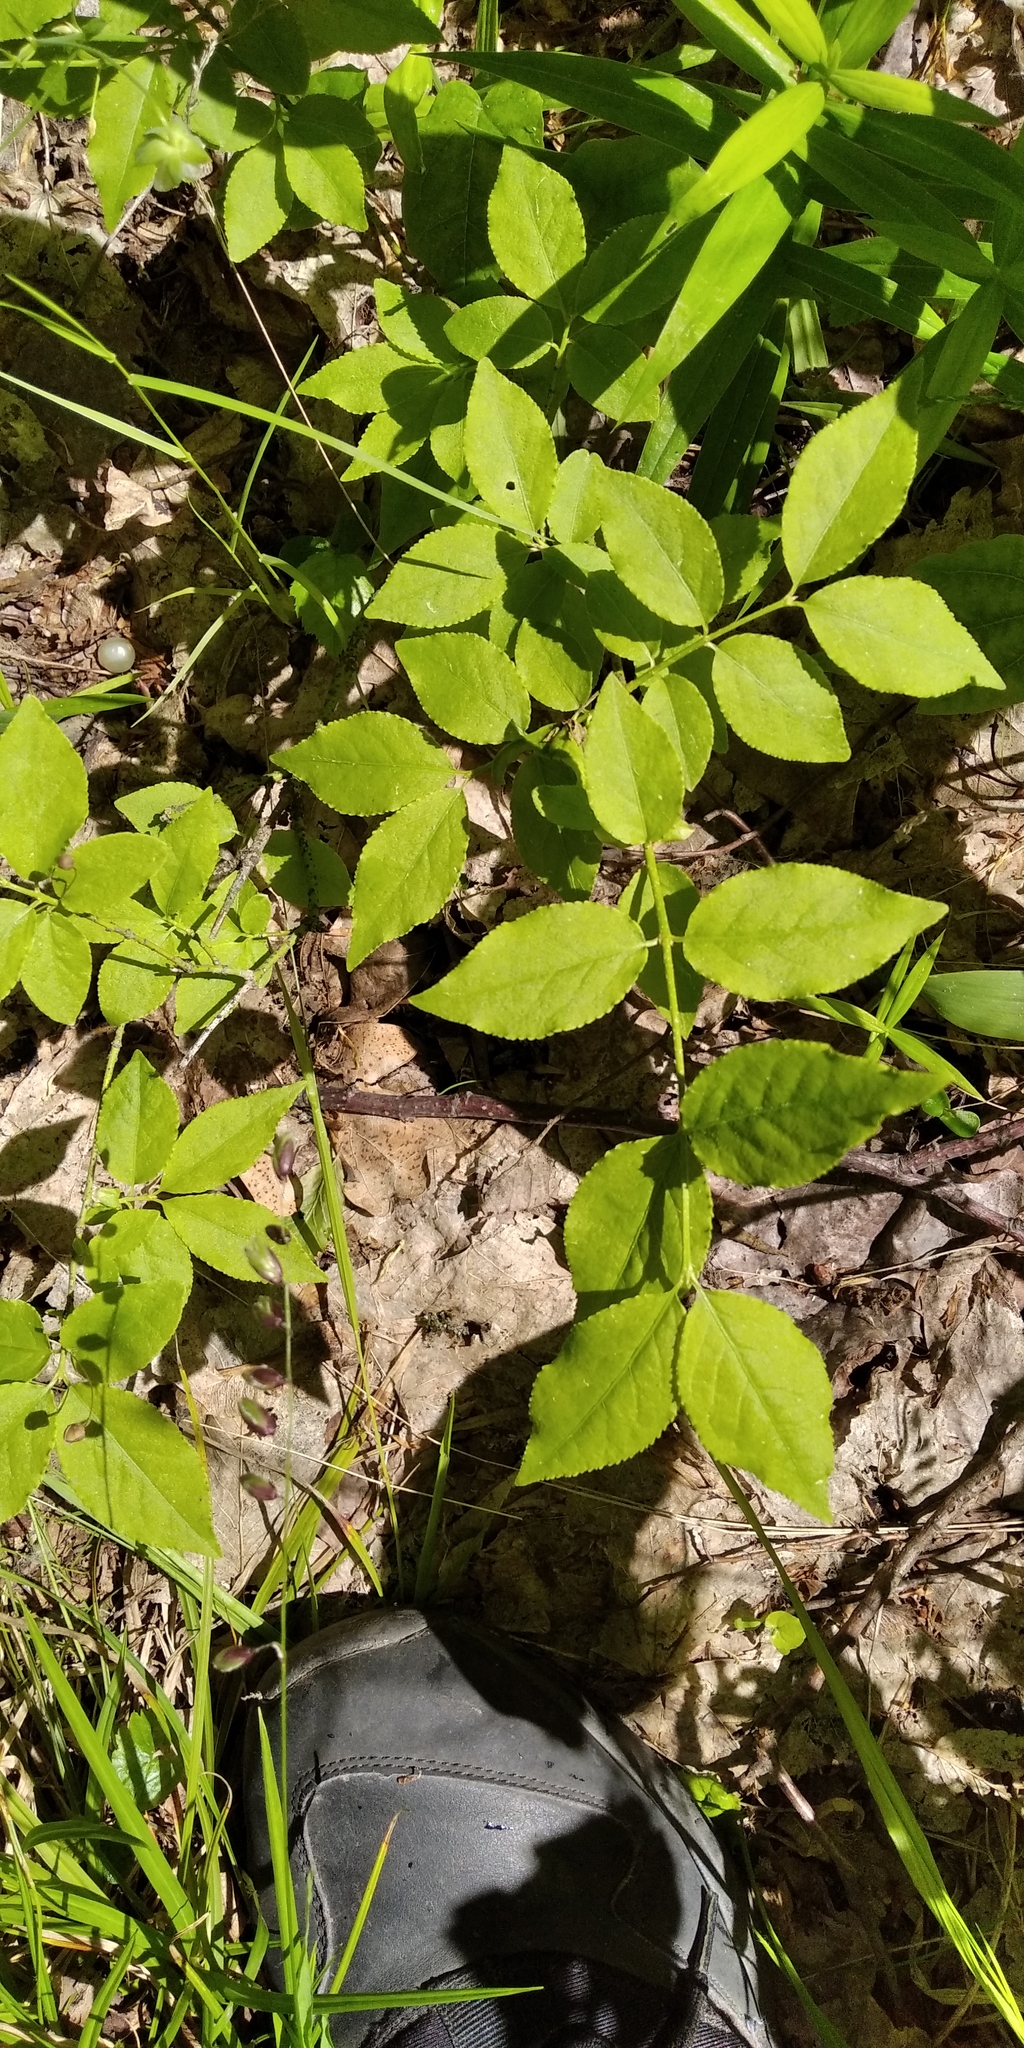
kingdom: Plantae
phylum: Tracheophyta
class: Magnoliopsida
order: Celastrales
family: Celastraceae
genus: Euonymus
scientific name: Euonymus verrucosus
